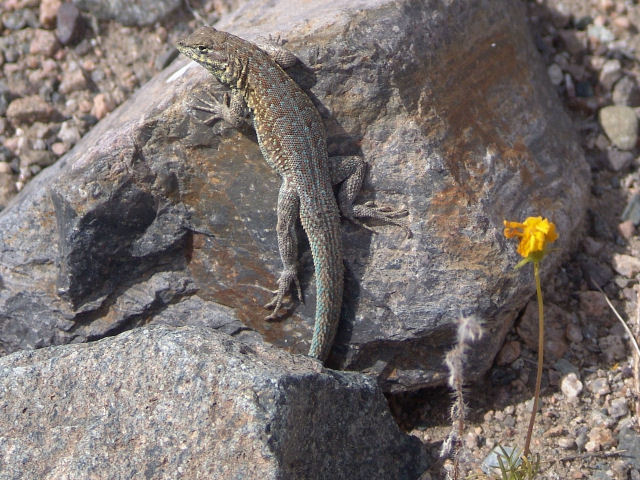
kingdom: Animalia
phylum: Chordata
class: Squamata
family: Phrynosomatidae
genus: Uta
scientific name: Uta stansburiana
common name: Side-blotched lizard
